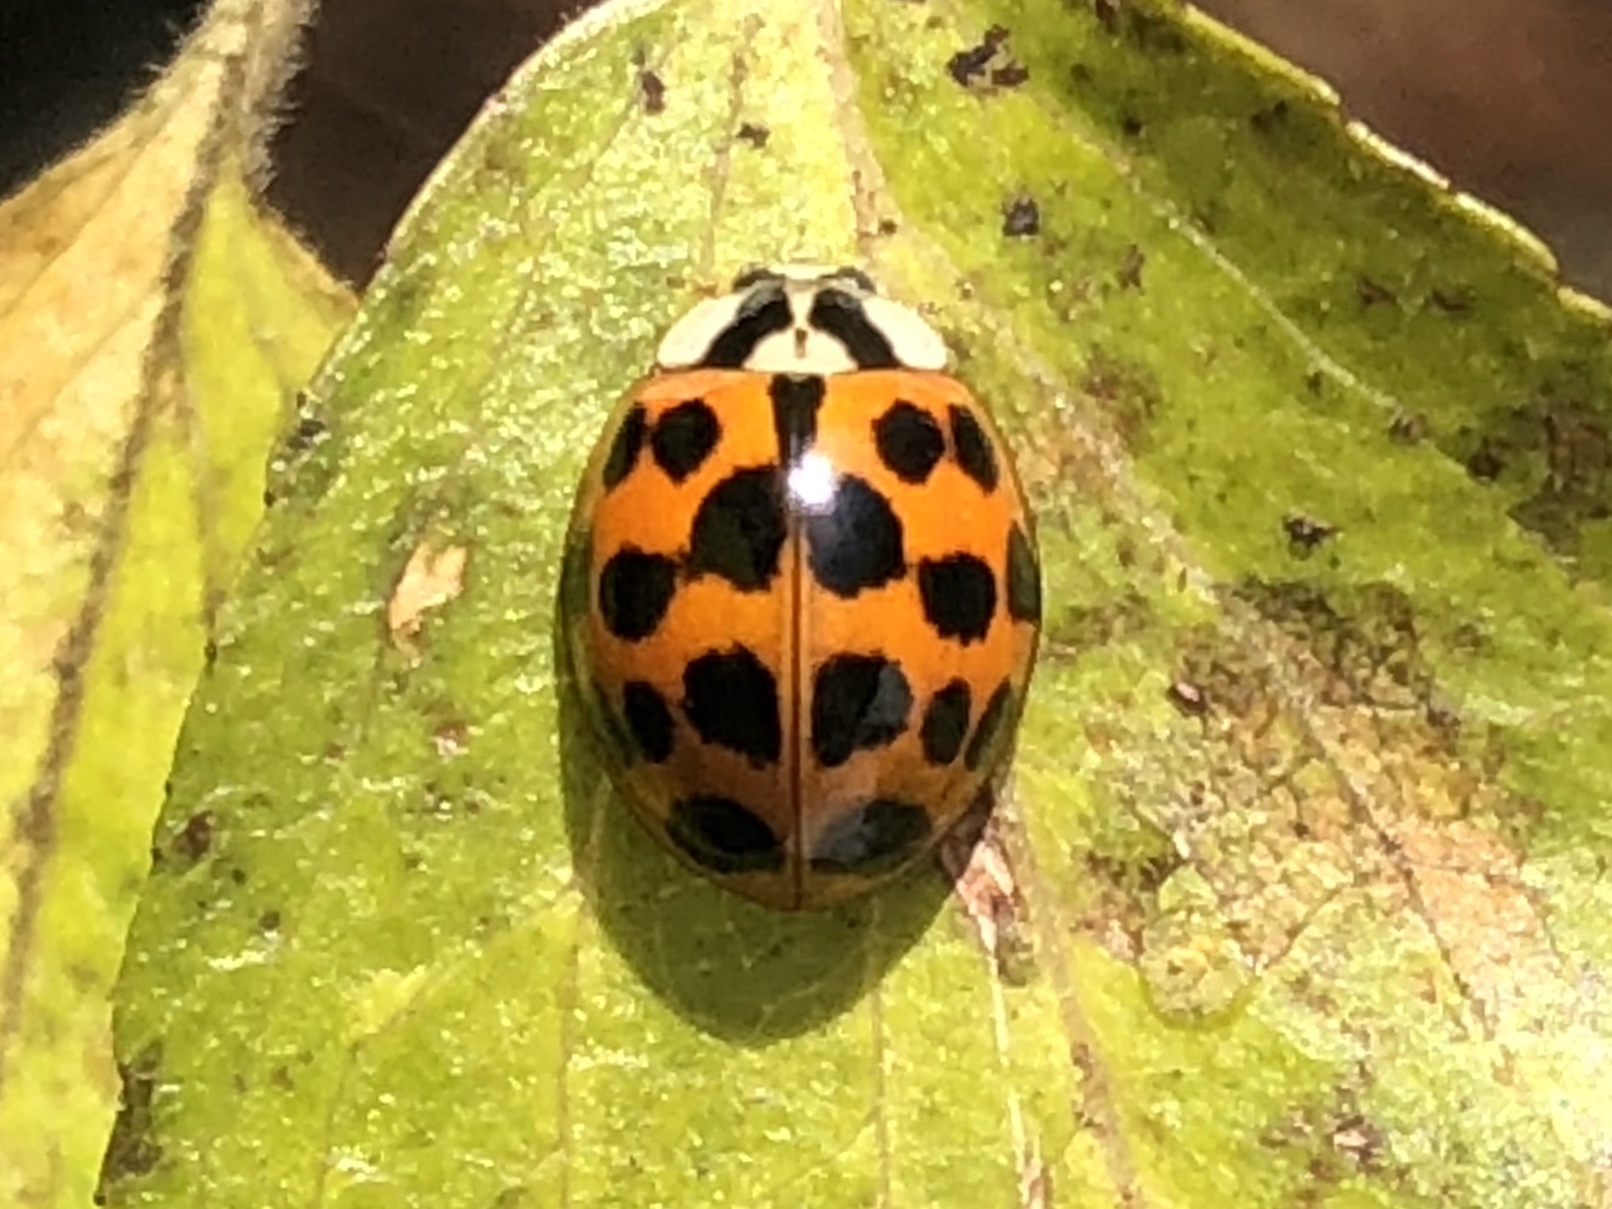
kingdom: Animalia
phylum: Arthropoda
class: Insecta
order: Coleoptera
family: Coccinellidae
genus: Harmonia
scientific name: Harmonia axyridis
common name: Harlequin ladybird
